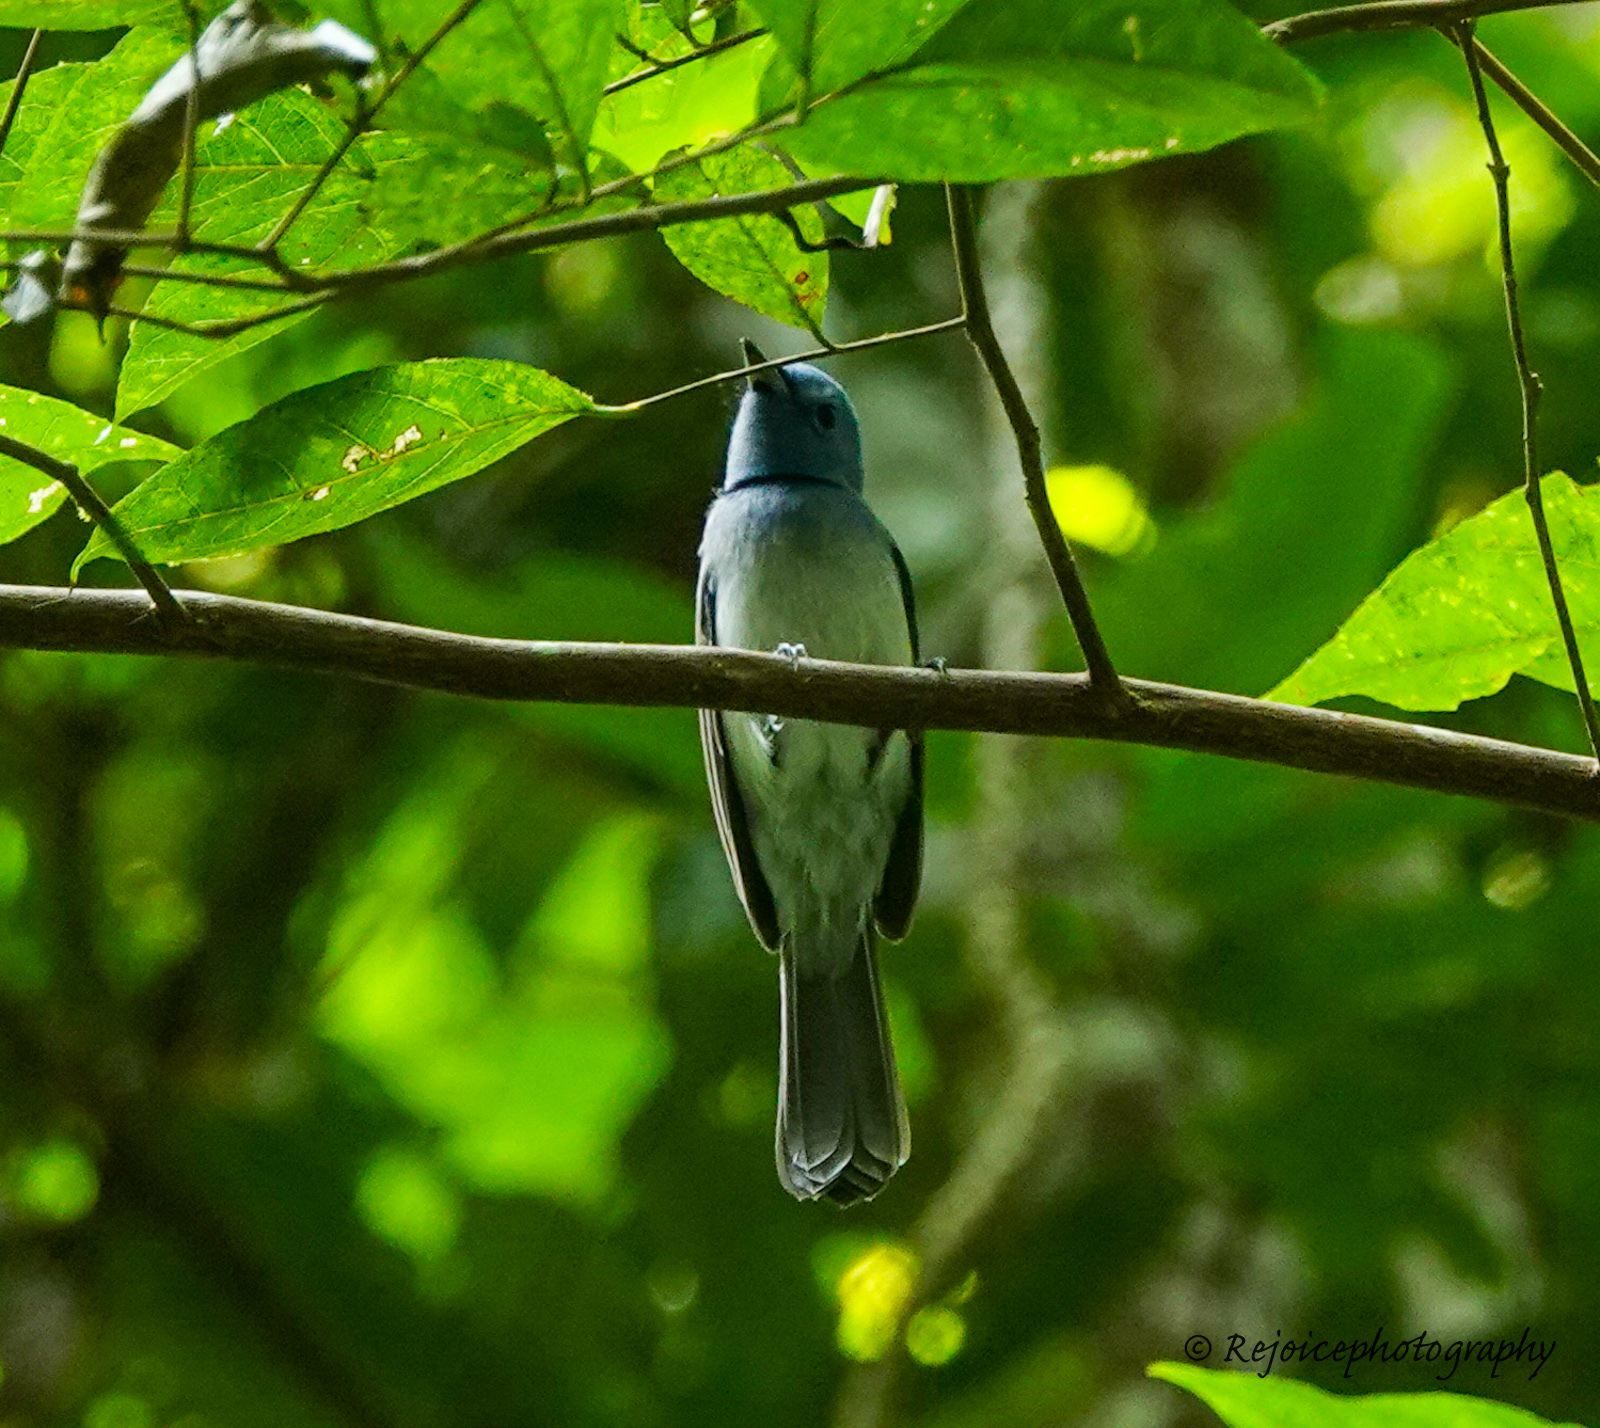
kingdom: Animalia
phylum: Chordata
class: Aves
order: Passeriformes
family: Monarchidae
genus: Hypothymis
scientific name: Hypothymis azurea
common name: Black-naped monarch
